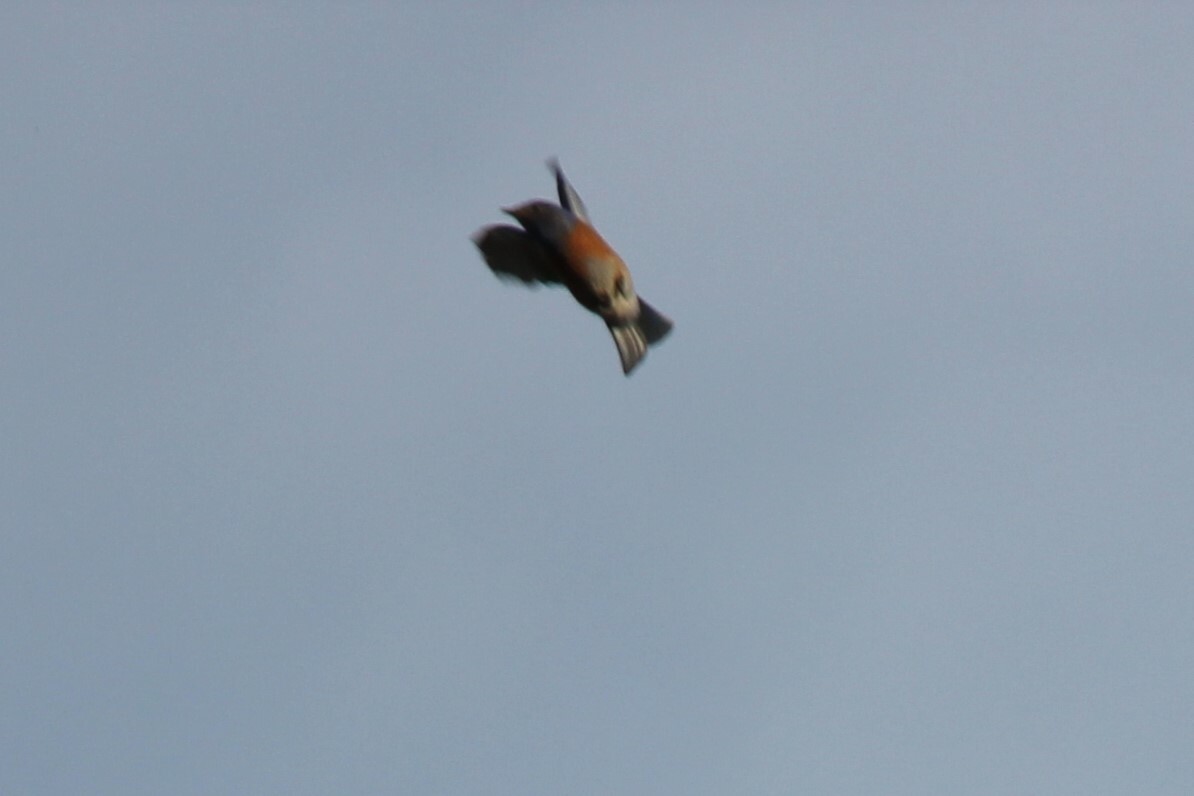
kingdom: Animalia
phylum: Chordata
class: Aves
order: Passeriformes
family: Turdidae
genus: Sialia
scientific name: Sialia mexicana
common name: Western bluebird
